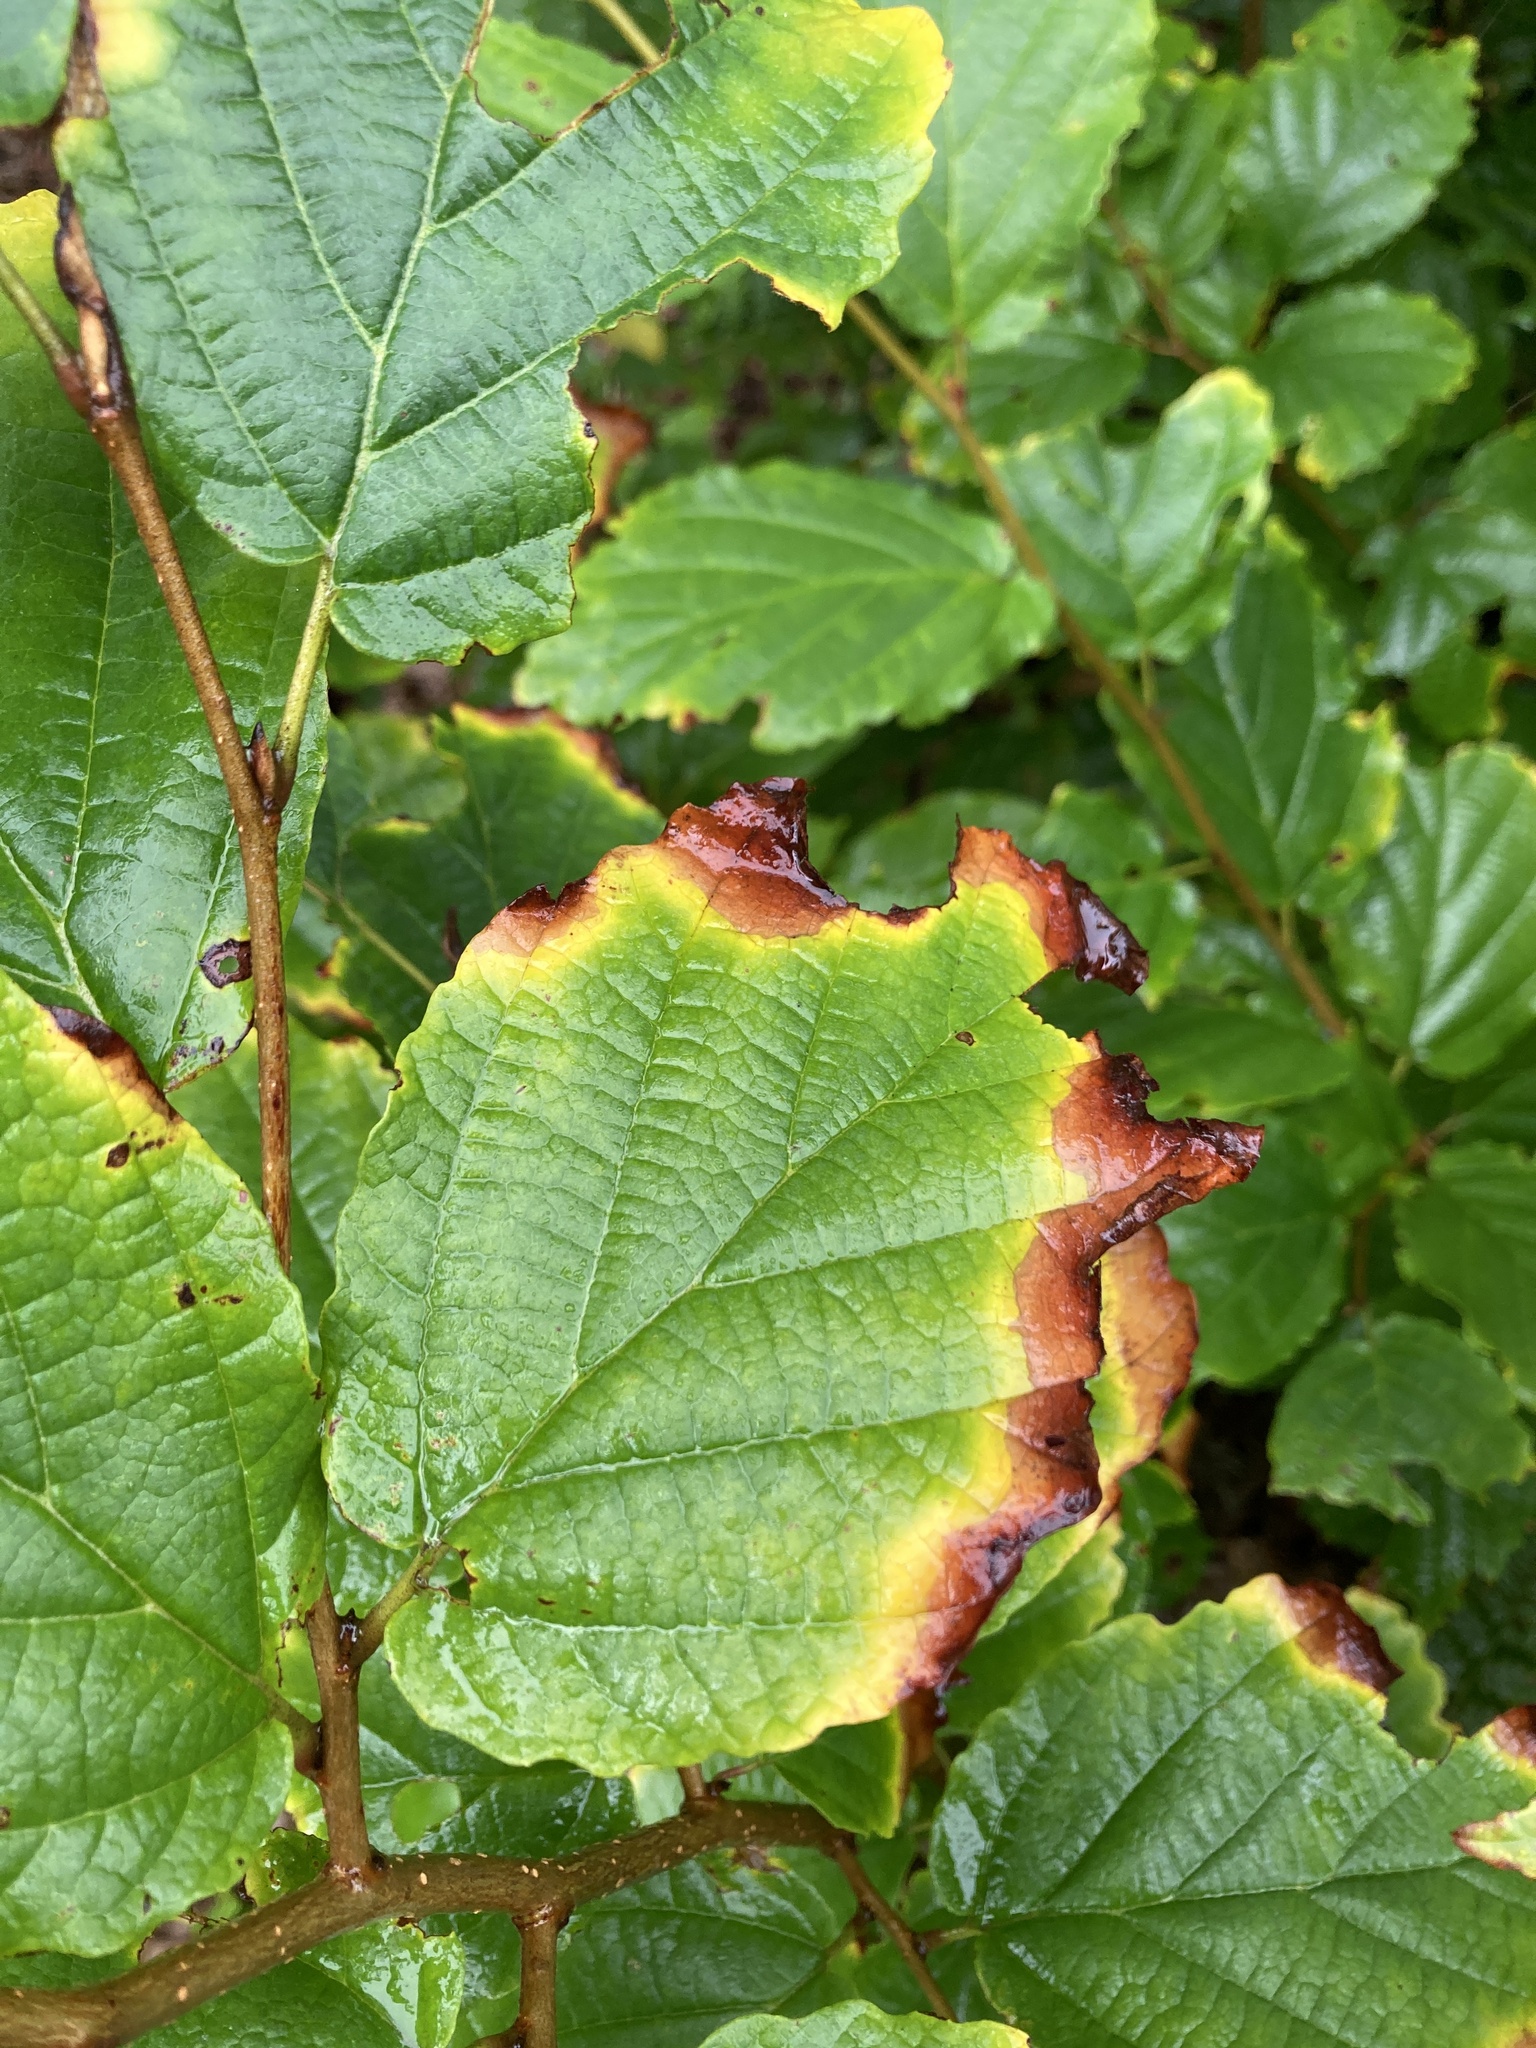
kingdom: Plantae
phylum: Tracheophyta
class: Magnoliopsida
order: Saxifragales
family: Hamamelidaceae
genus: Hamamelis
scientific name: Hamamelis virginiana
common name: Witch-hazel
